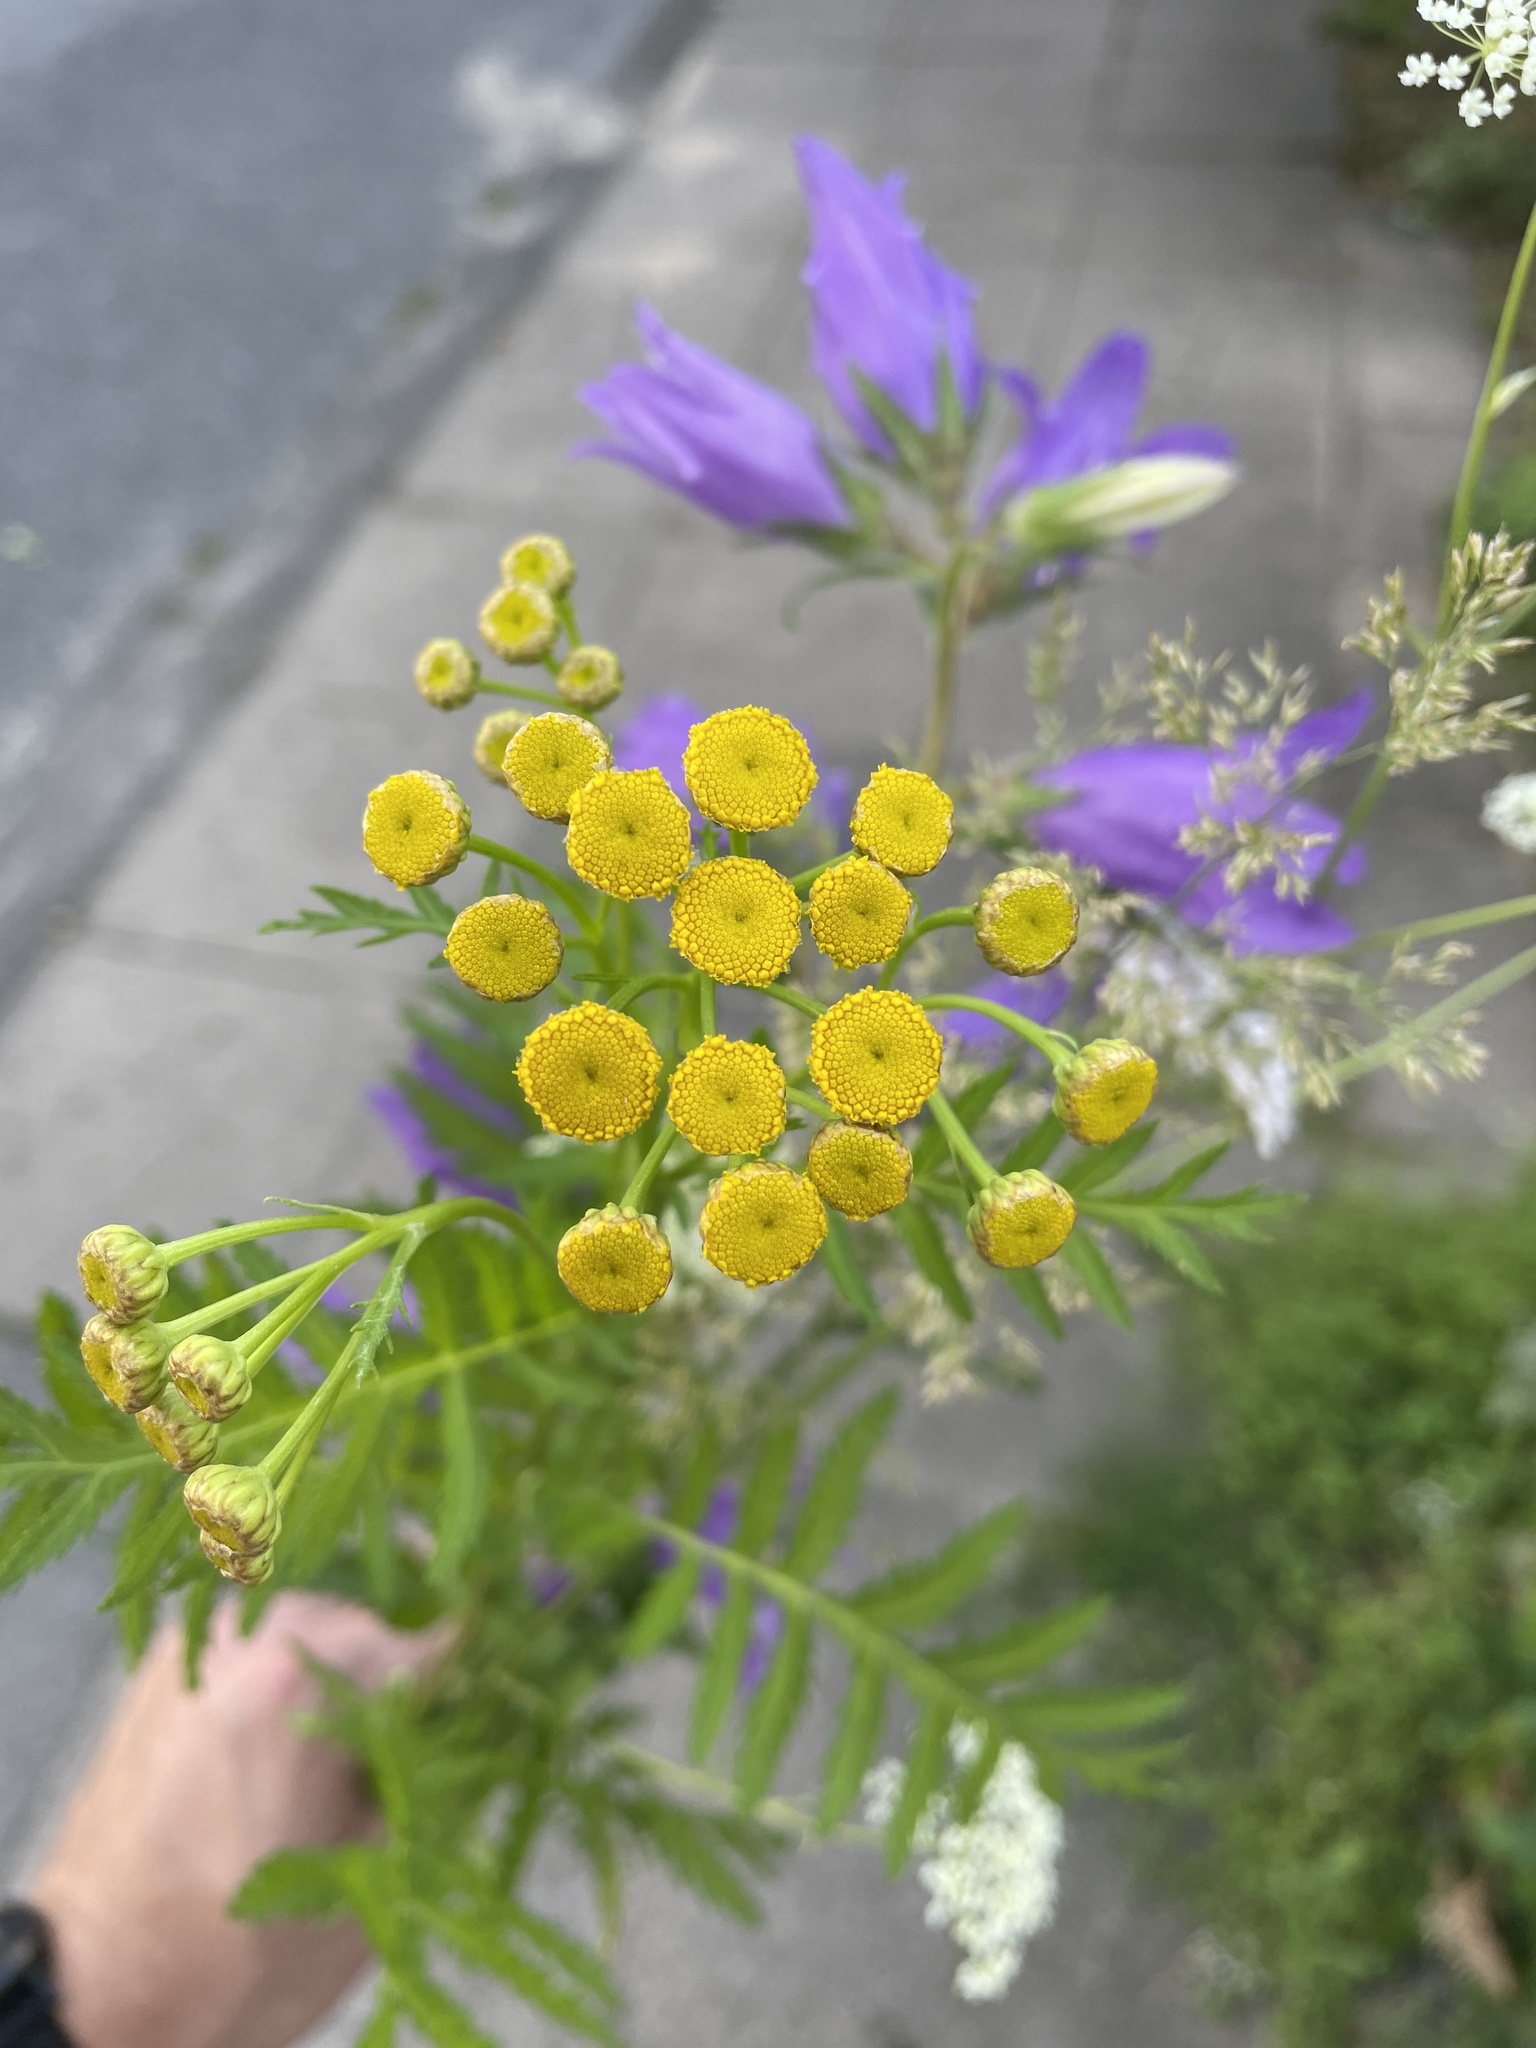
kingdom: Plantae
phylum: Tracheophyta
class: Magnoliopsida
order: Asterales
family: Asteraceae
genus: Tanacetum
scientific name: Tanacetum vulgare
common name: Common tansy
